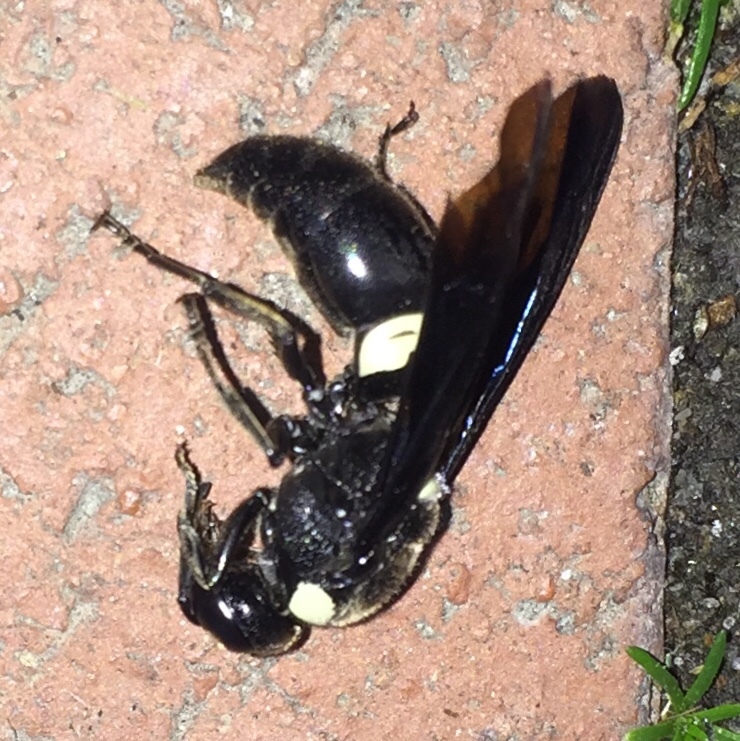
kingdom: Animalia
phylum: Arthropoda
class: Insecta
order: Hymenoptera
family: Eumenidae
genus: Monobia
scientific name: Monobia quadridens
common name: Four-toothed mason wasp
